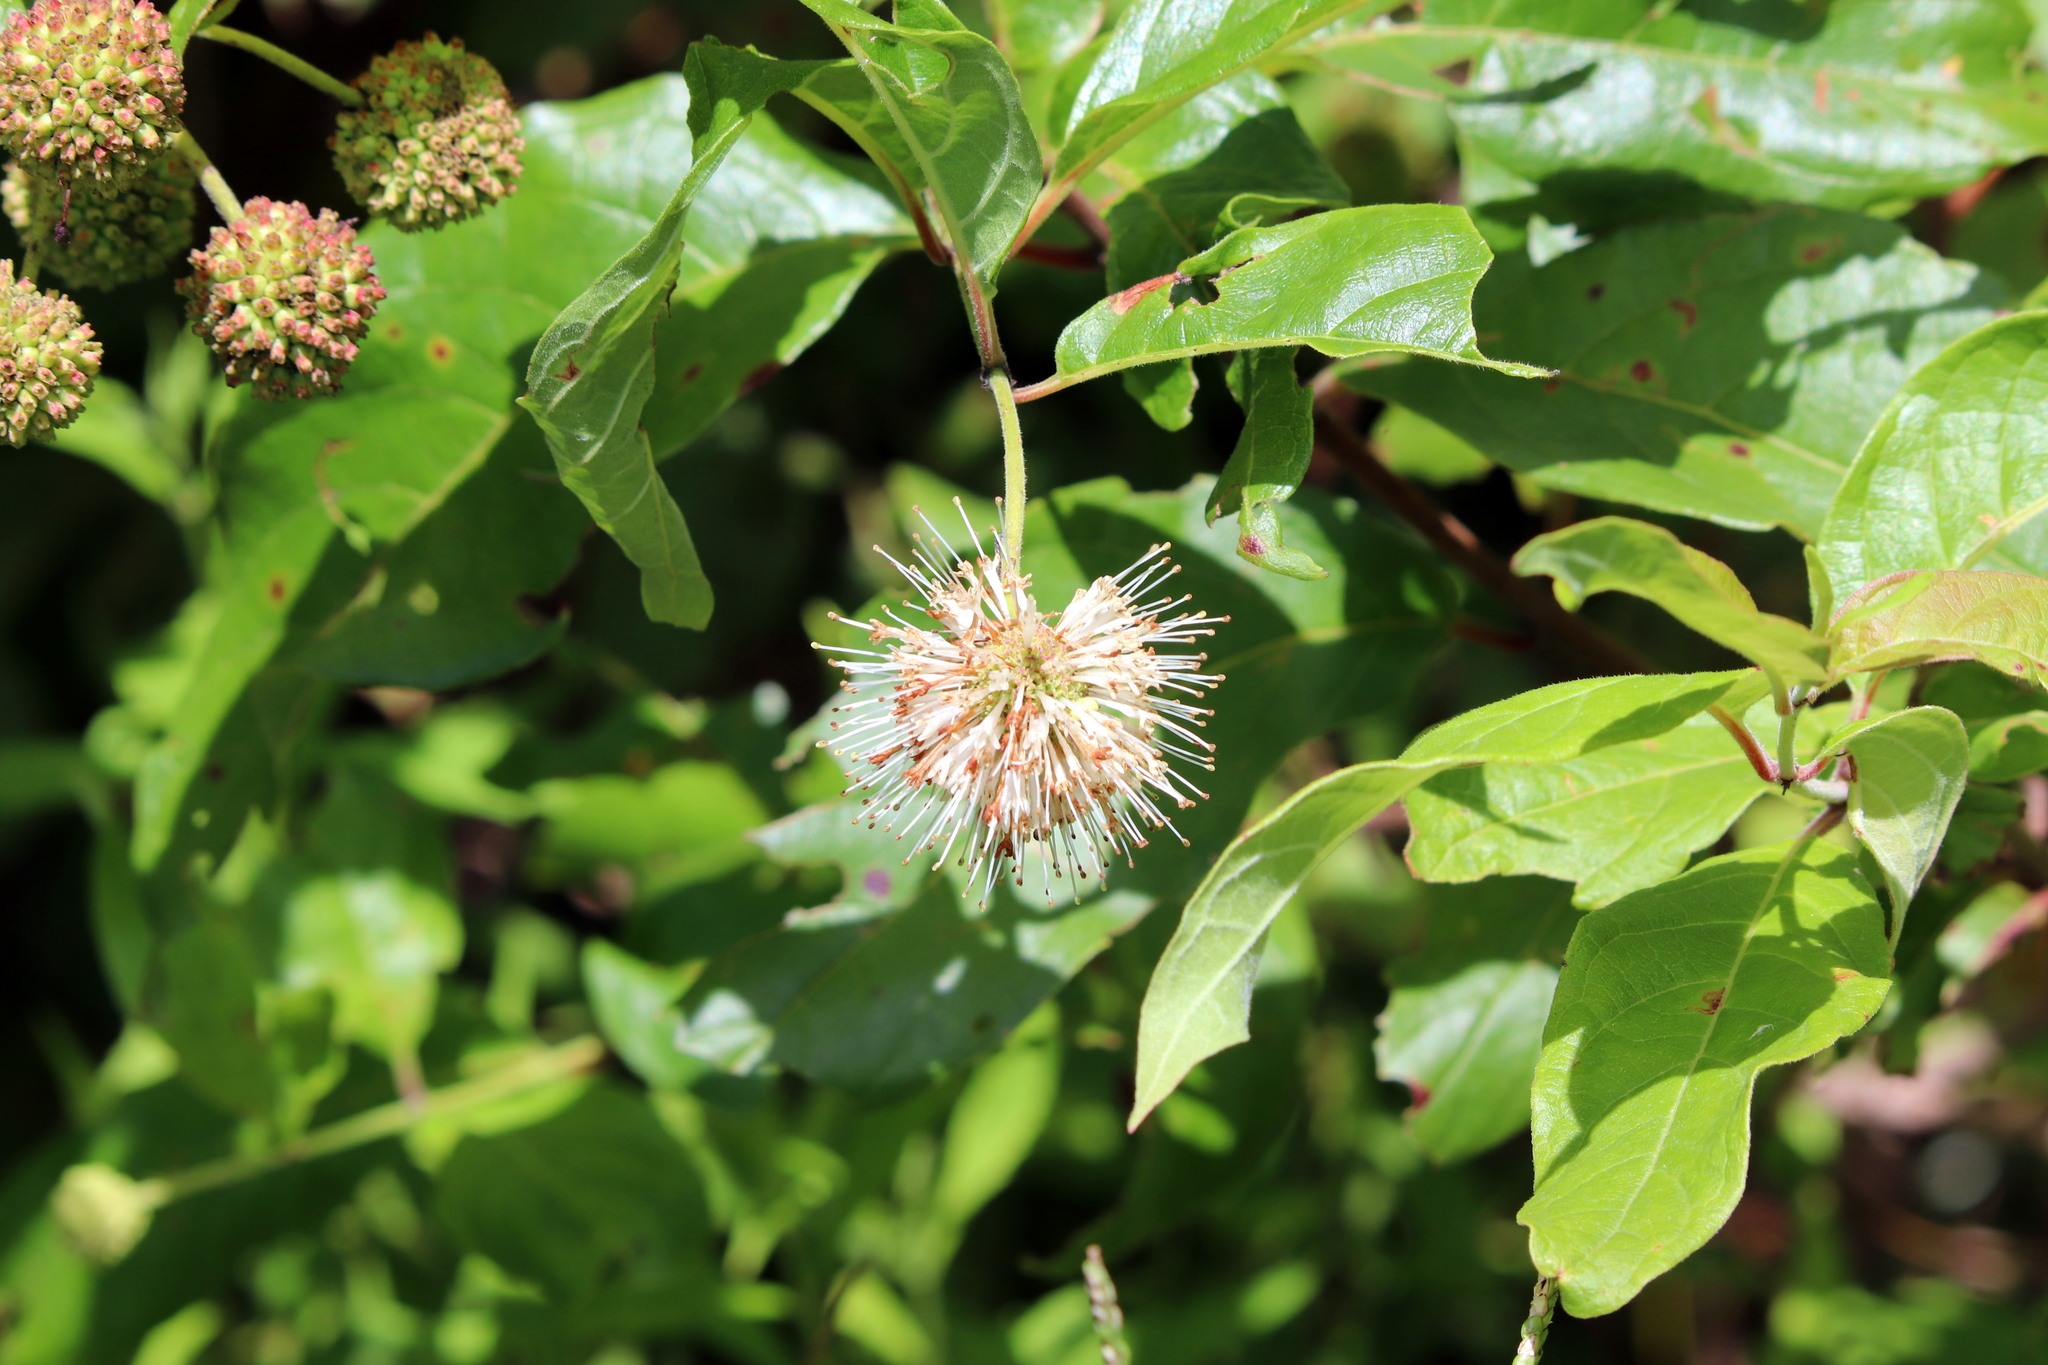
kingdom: Plantae
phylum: Tracheophyta
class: Magnoliopsida
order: Gentianales
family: Rubiaceae
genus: Cephalanthus
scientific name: Cephalanthus occidentalis
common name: Button-willow
